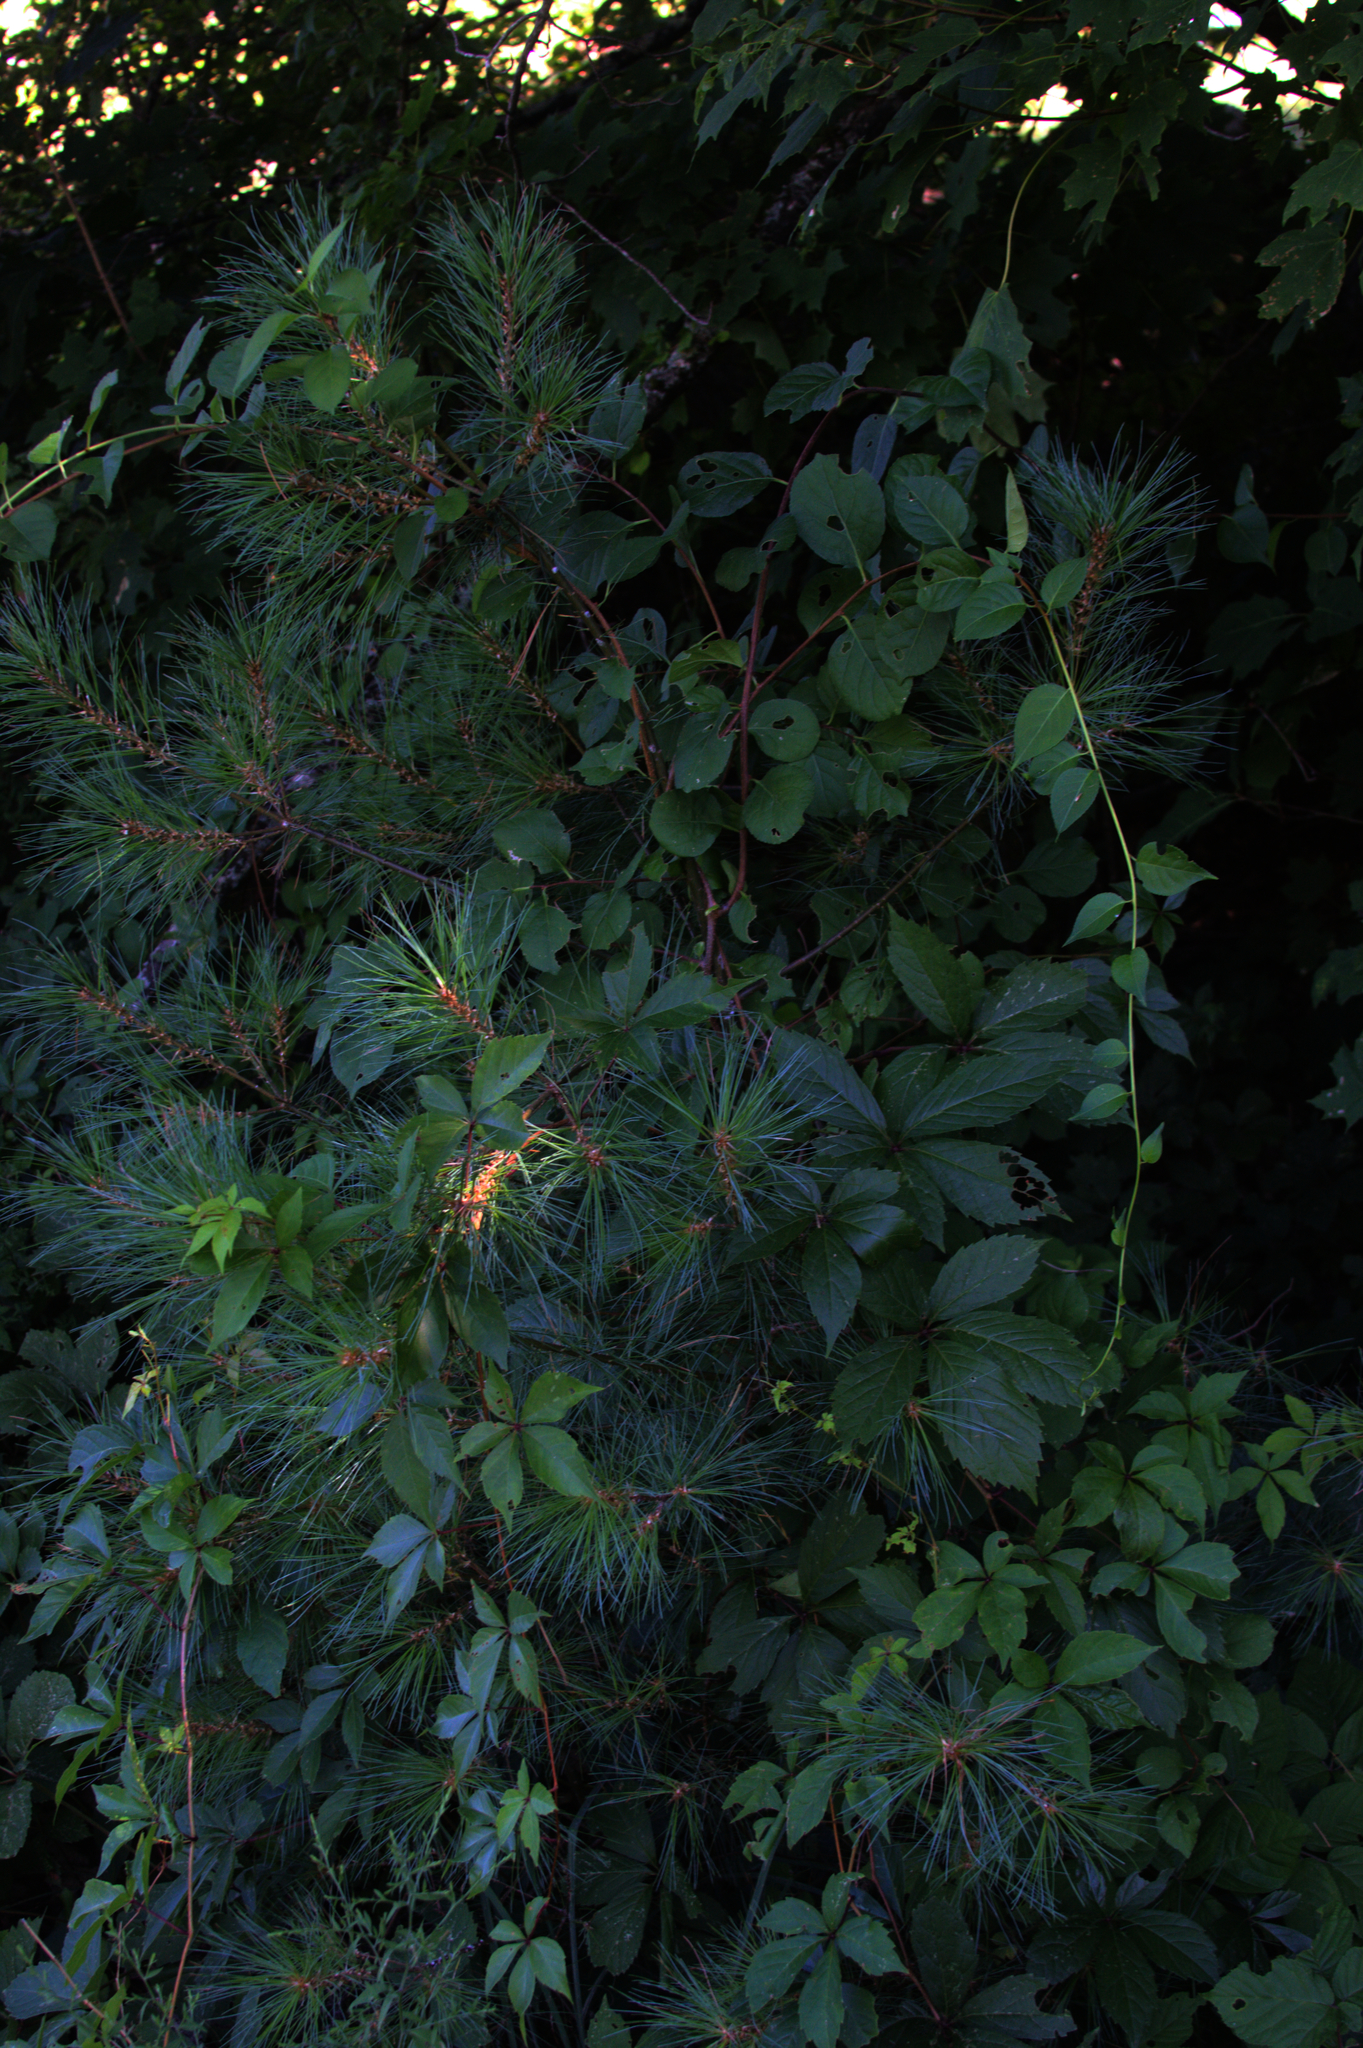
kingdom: Plantae
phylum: Tracheophyta
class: Pinopsida
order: Pinales
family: Pinaceae
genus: Pinus
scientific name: Pinus strobus
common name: Weymouth pine
